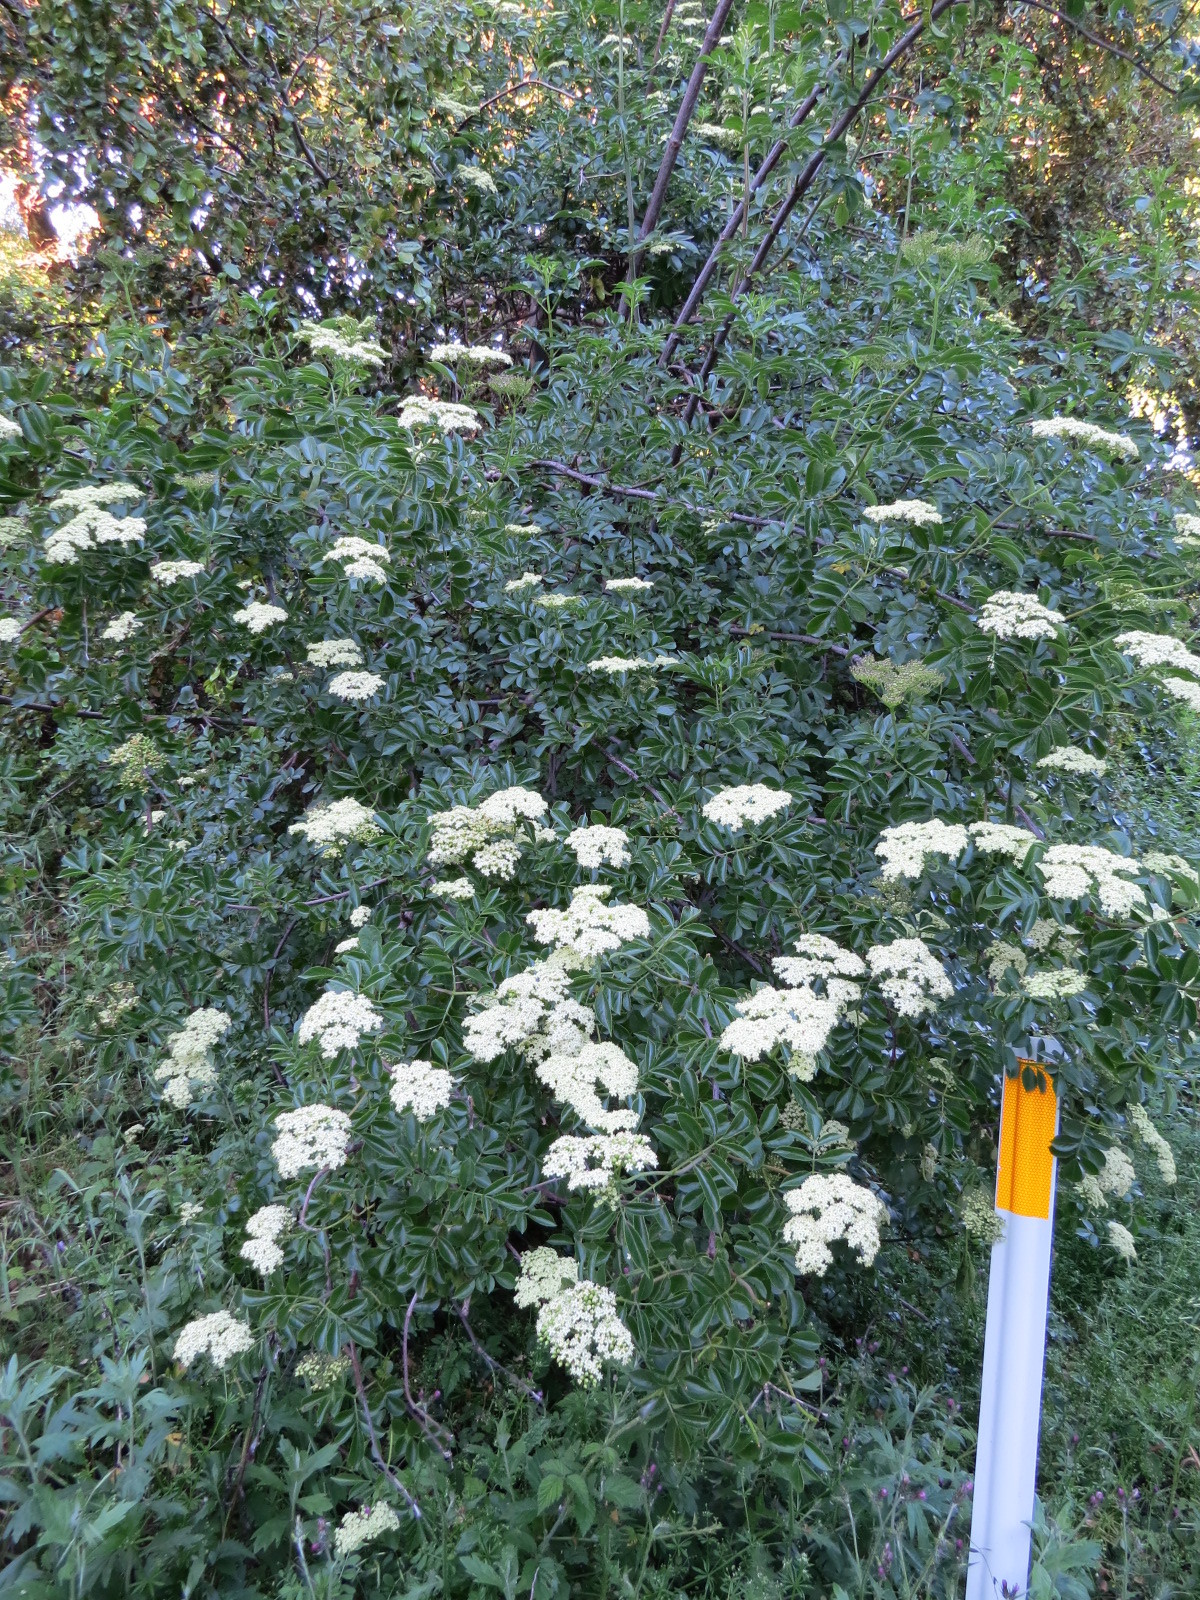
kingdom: Plantae
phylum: Tracheophyta
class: Magnoliopsida
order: Dipsacales
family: Viburnaceae
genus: Sambucus
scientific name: Sambucus cerulea
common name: Blue elder
